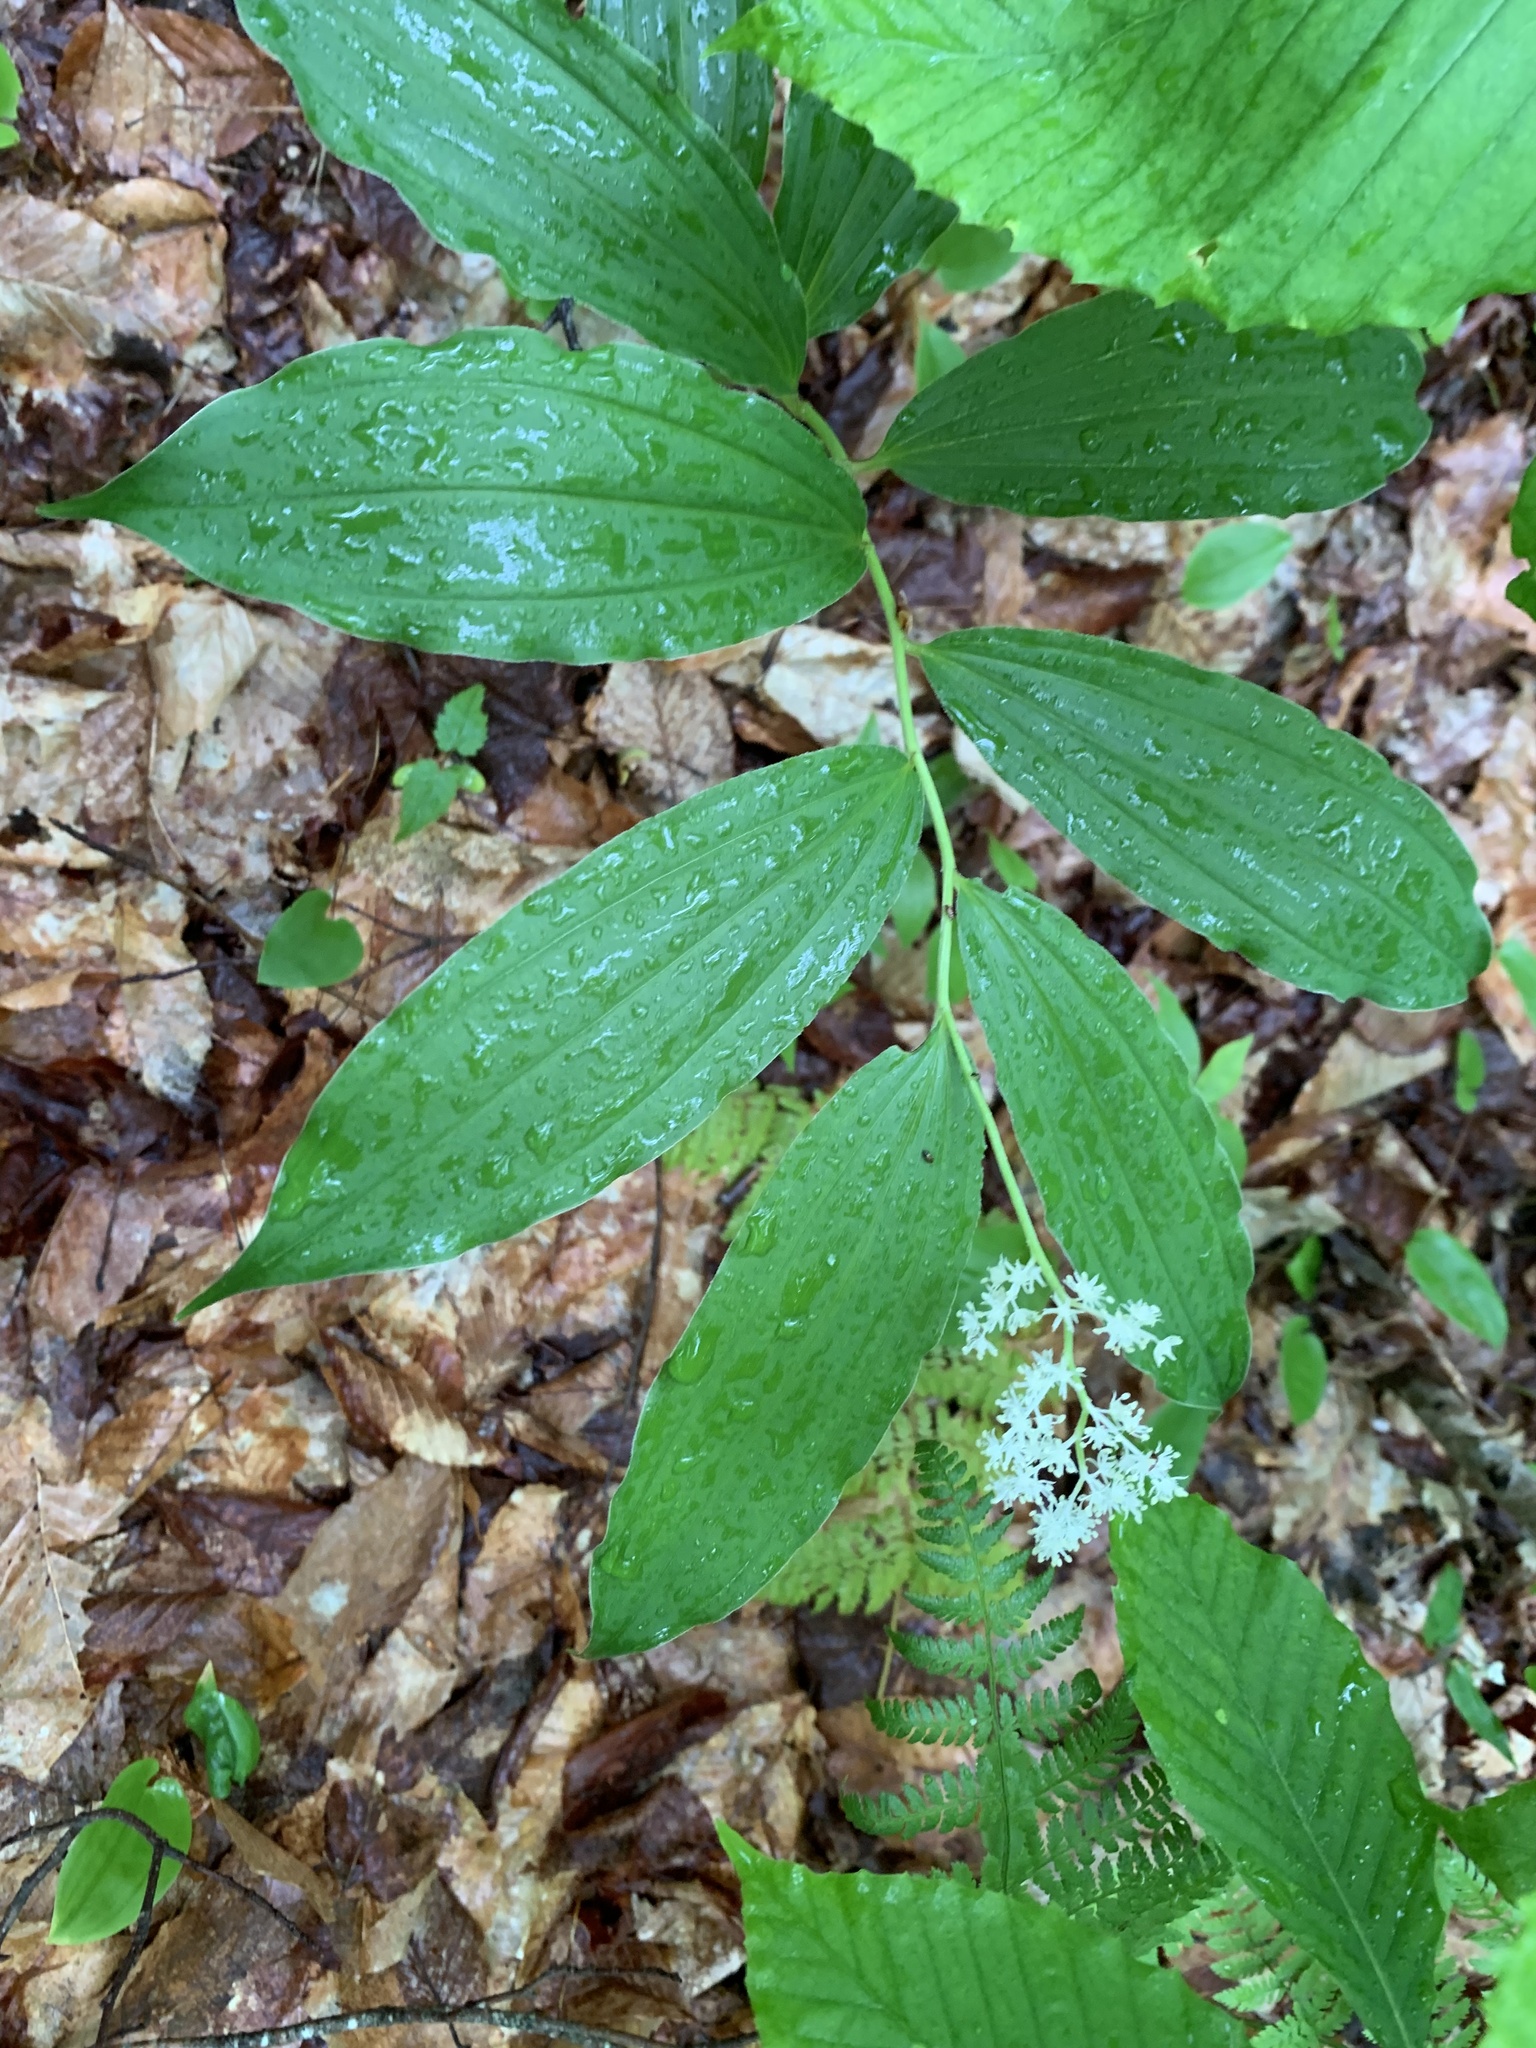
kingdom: Plantae
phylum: Tracheophyta
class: Liliopsida
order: Asparagales
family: Asparagaceae
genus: Maianthemum
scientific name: Maianthemum racemosum
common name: False spikenard
